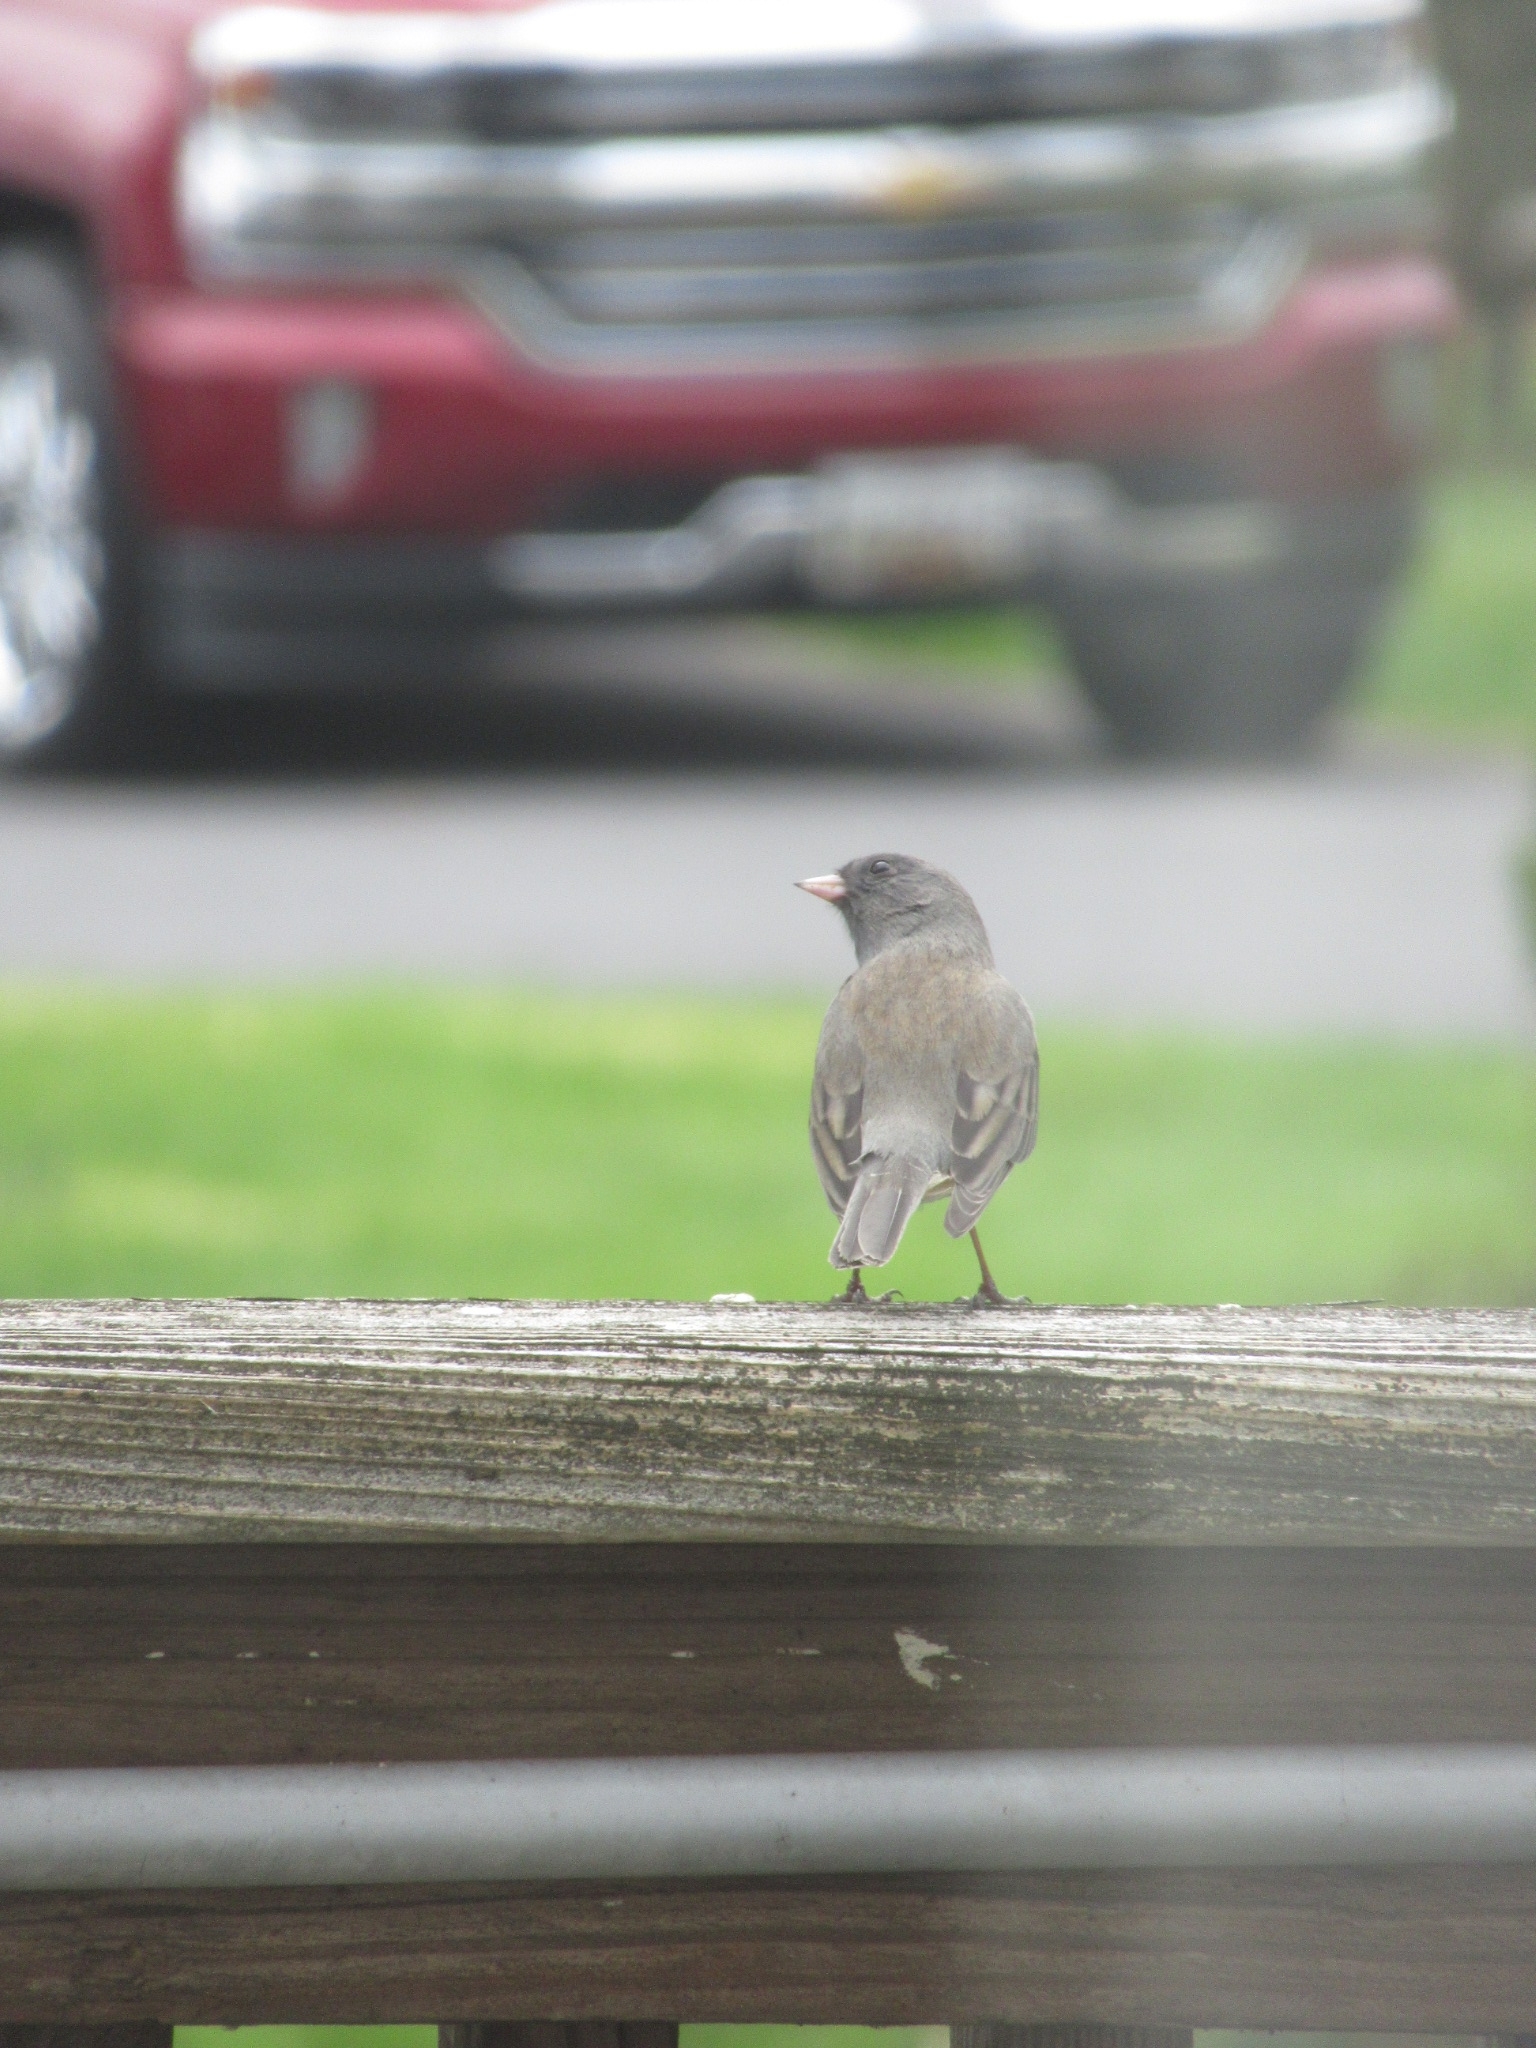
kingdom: Animalia
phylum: Chordata
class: Aves
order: Passeriformes
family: Passerellidae
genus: Junco
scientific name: Junco hyemalis
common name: Dark-eyed junco
